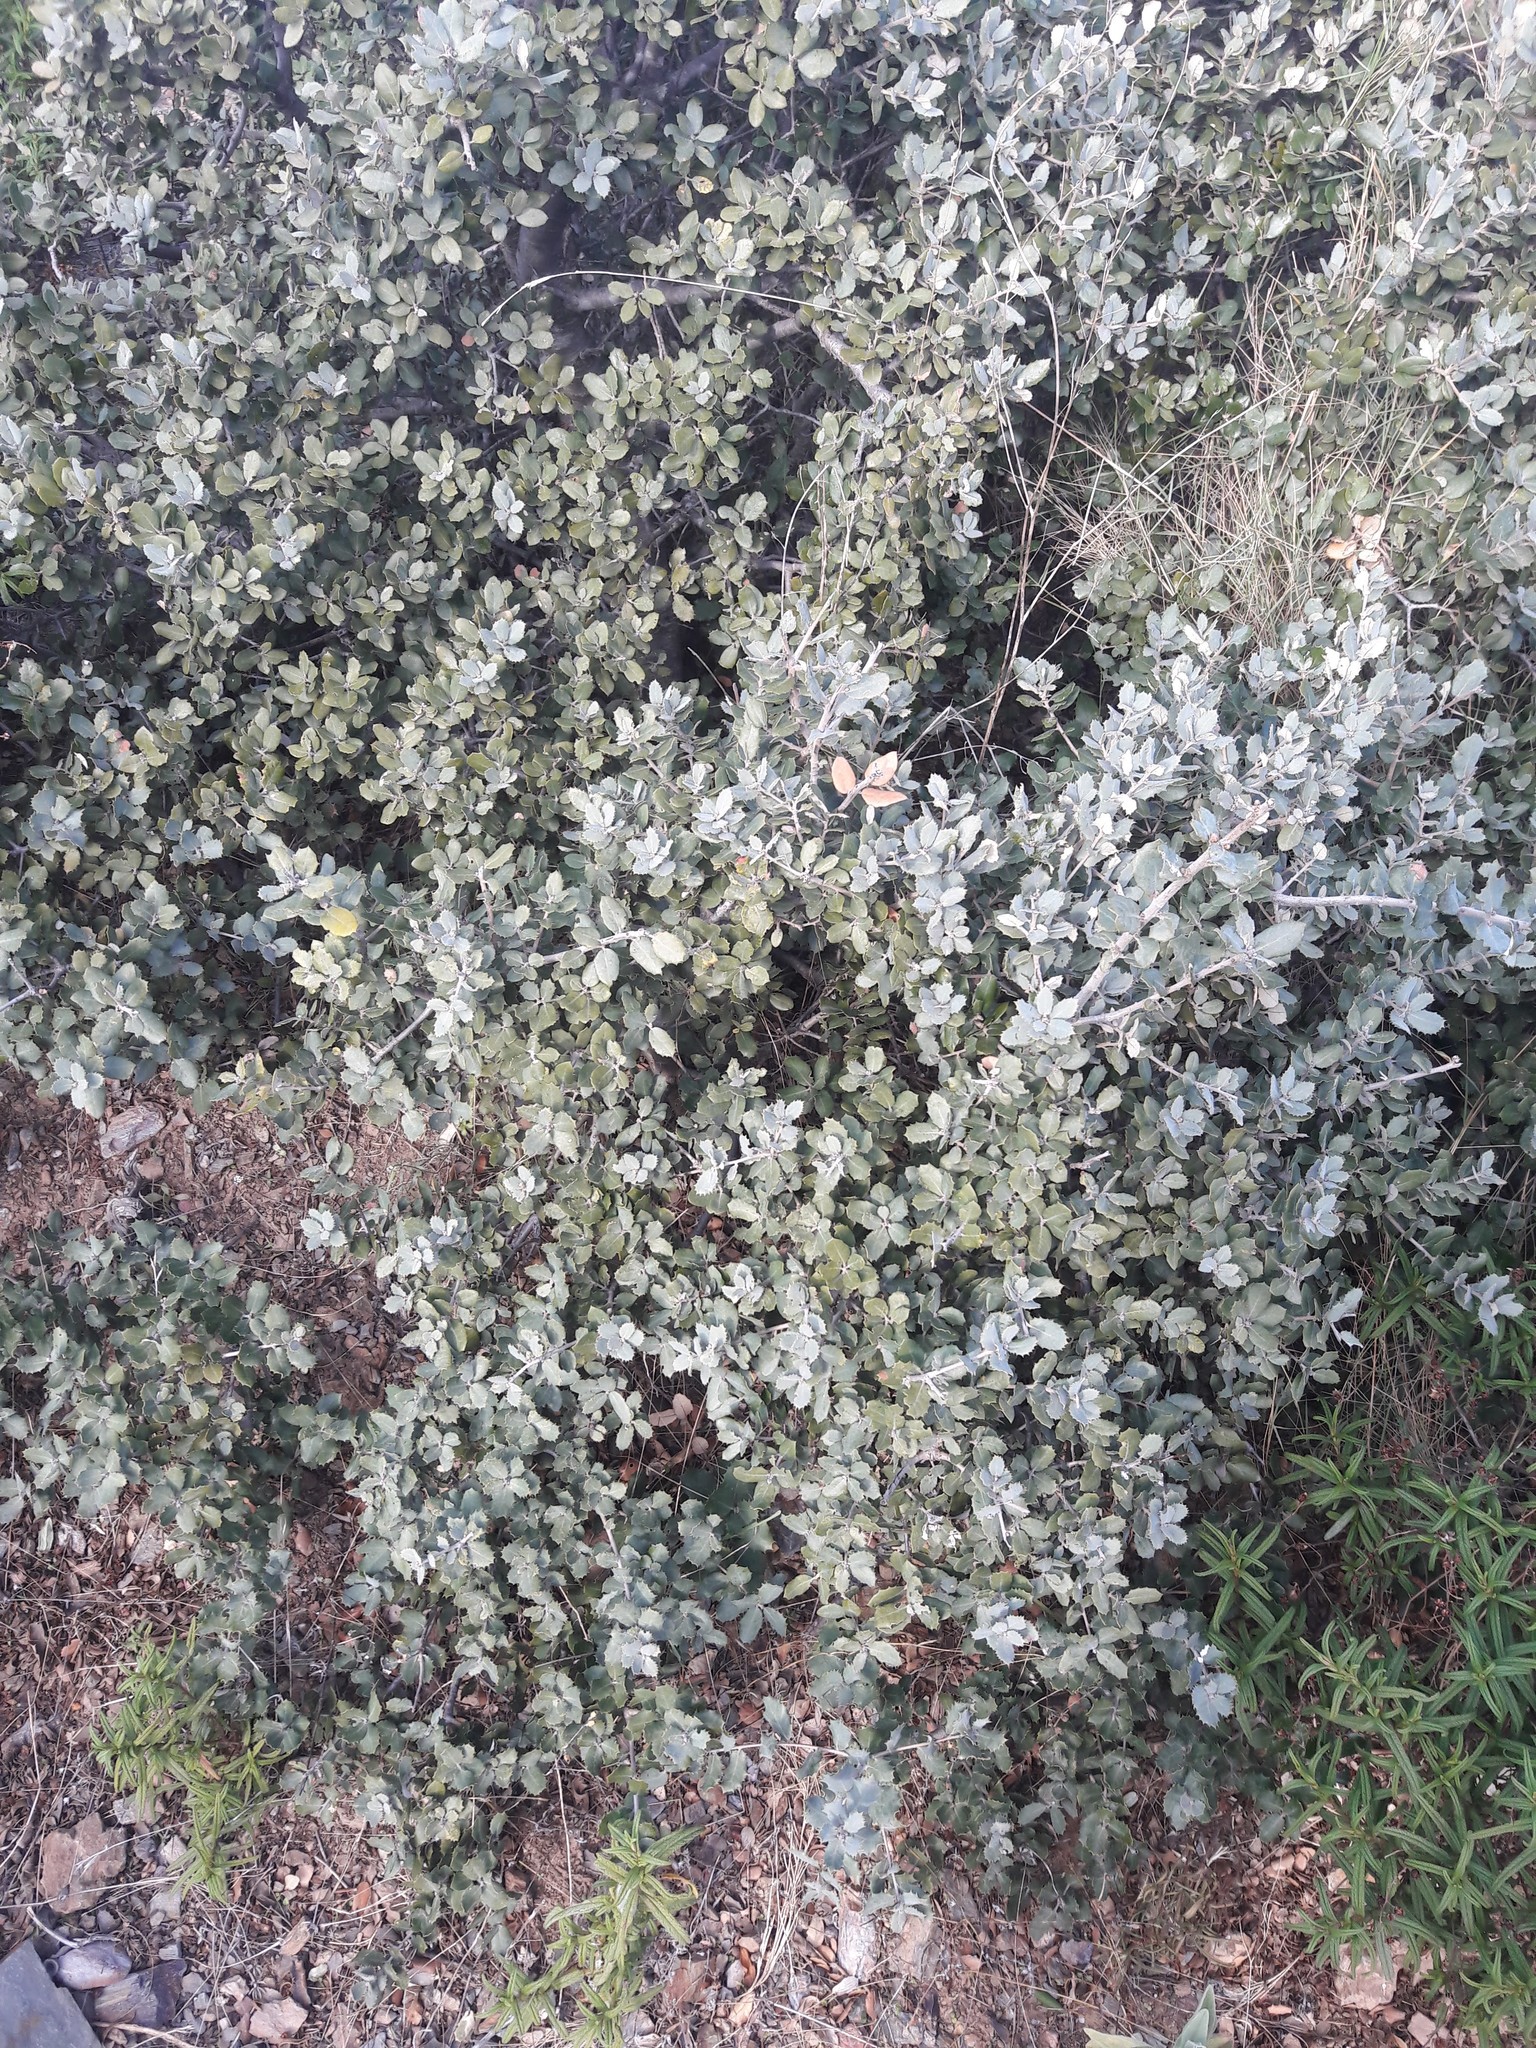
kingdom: Plantae
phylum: Tracheophyta
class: Magnoliopsida
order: Fagales
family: Fagaceae
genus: Quercus
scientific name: Quercus rotundifolia
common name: Holm oak
